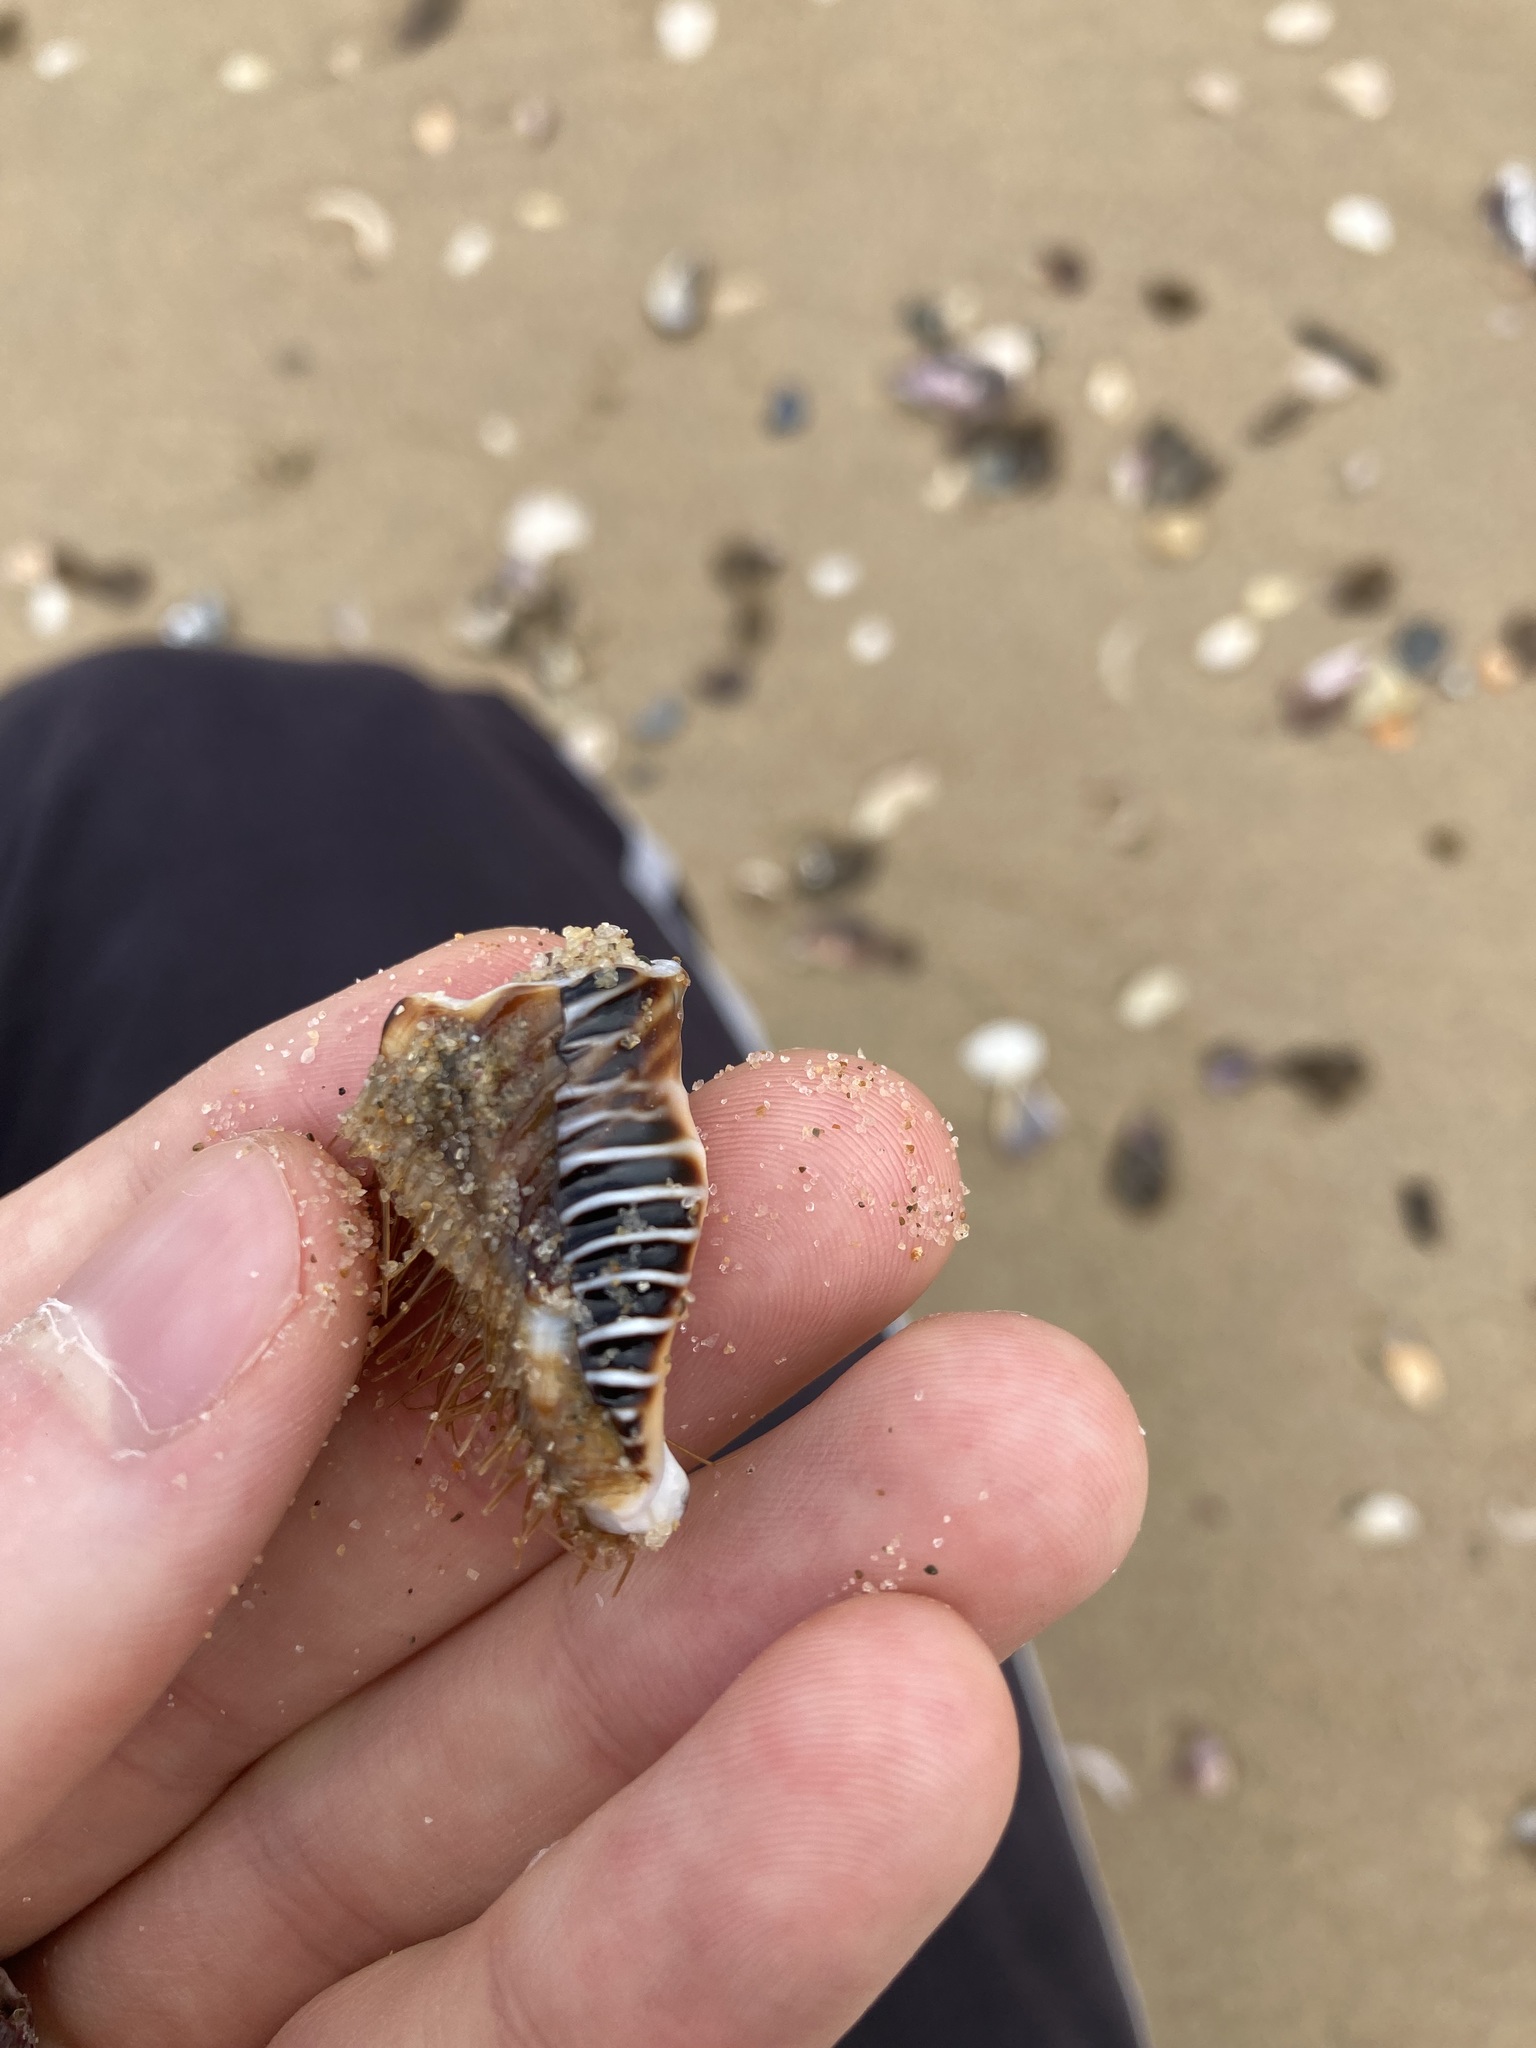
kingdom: Animalia
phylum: Mollusca
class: Gastropoda
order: Littorinimorpha
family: Cymatiidae
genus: Monoplex
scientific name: Monoplex parthenopeus
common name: Giant triton
